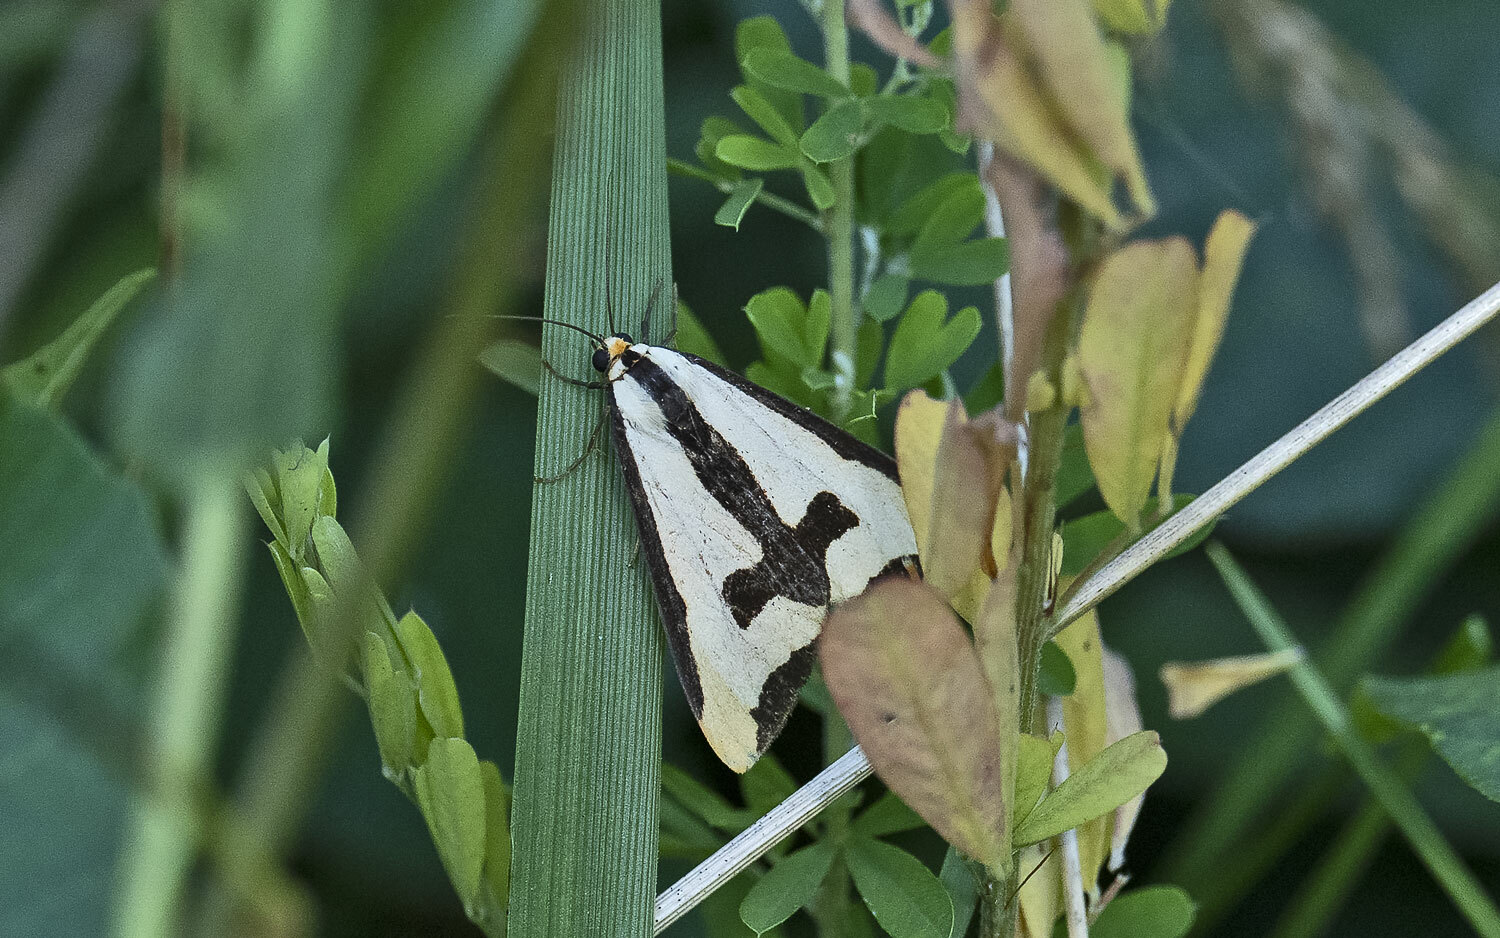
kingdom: Animalia
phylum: Arthropoda
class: Insecta
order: Lepidoptera
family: Erebidae
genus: Haploa
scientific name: Haploa clymene
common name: Clymene moth
